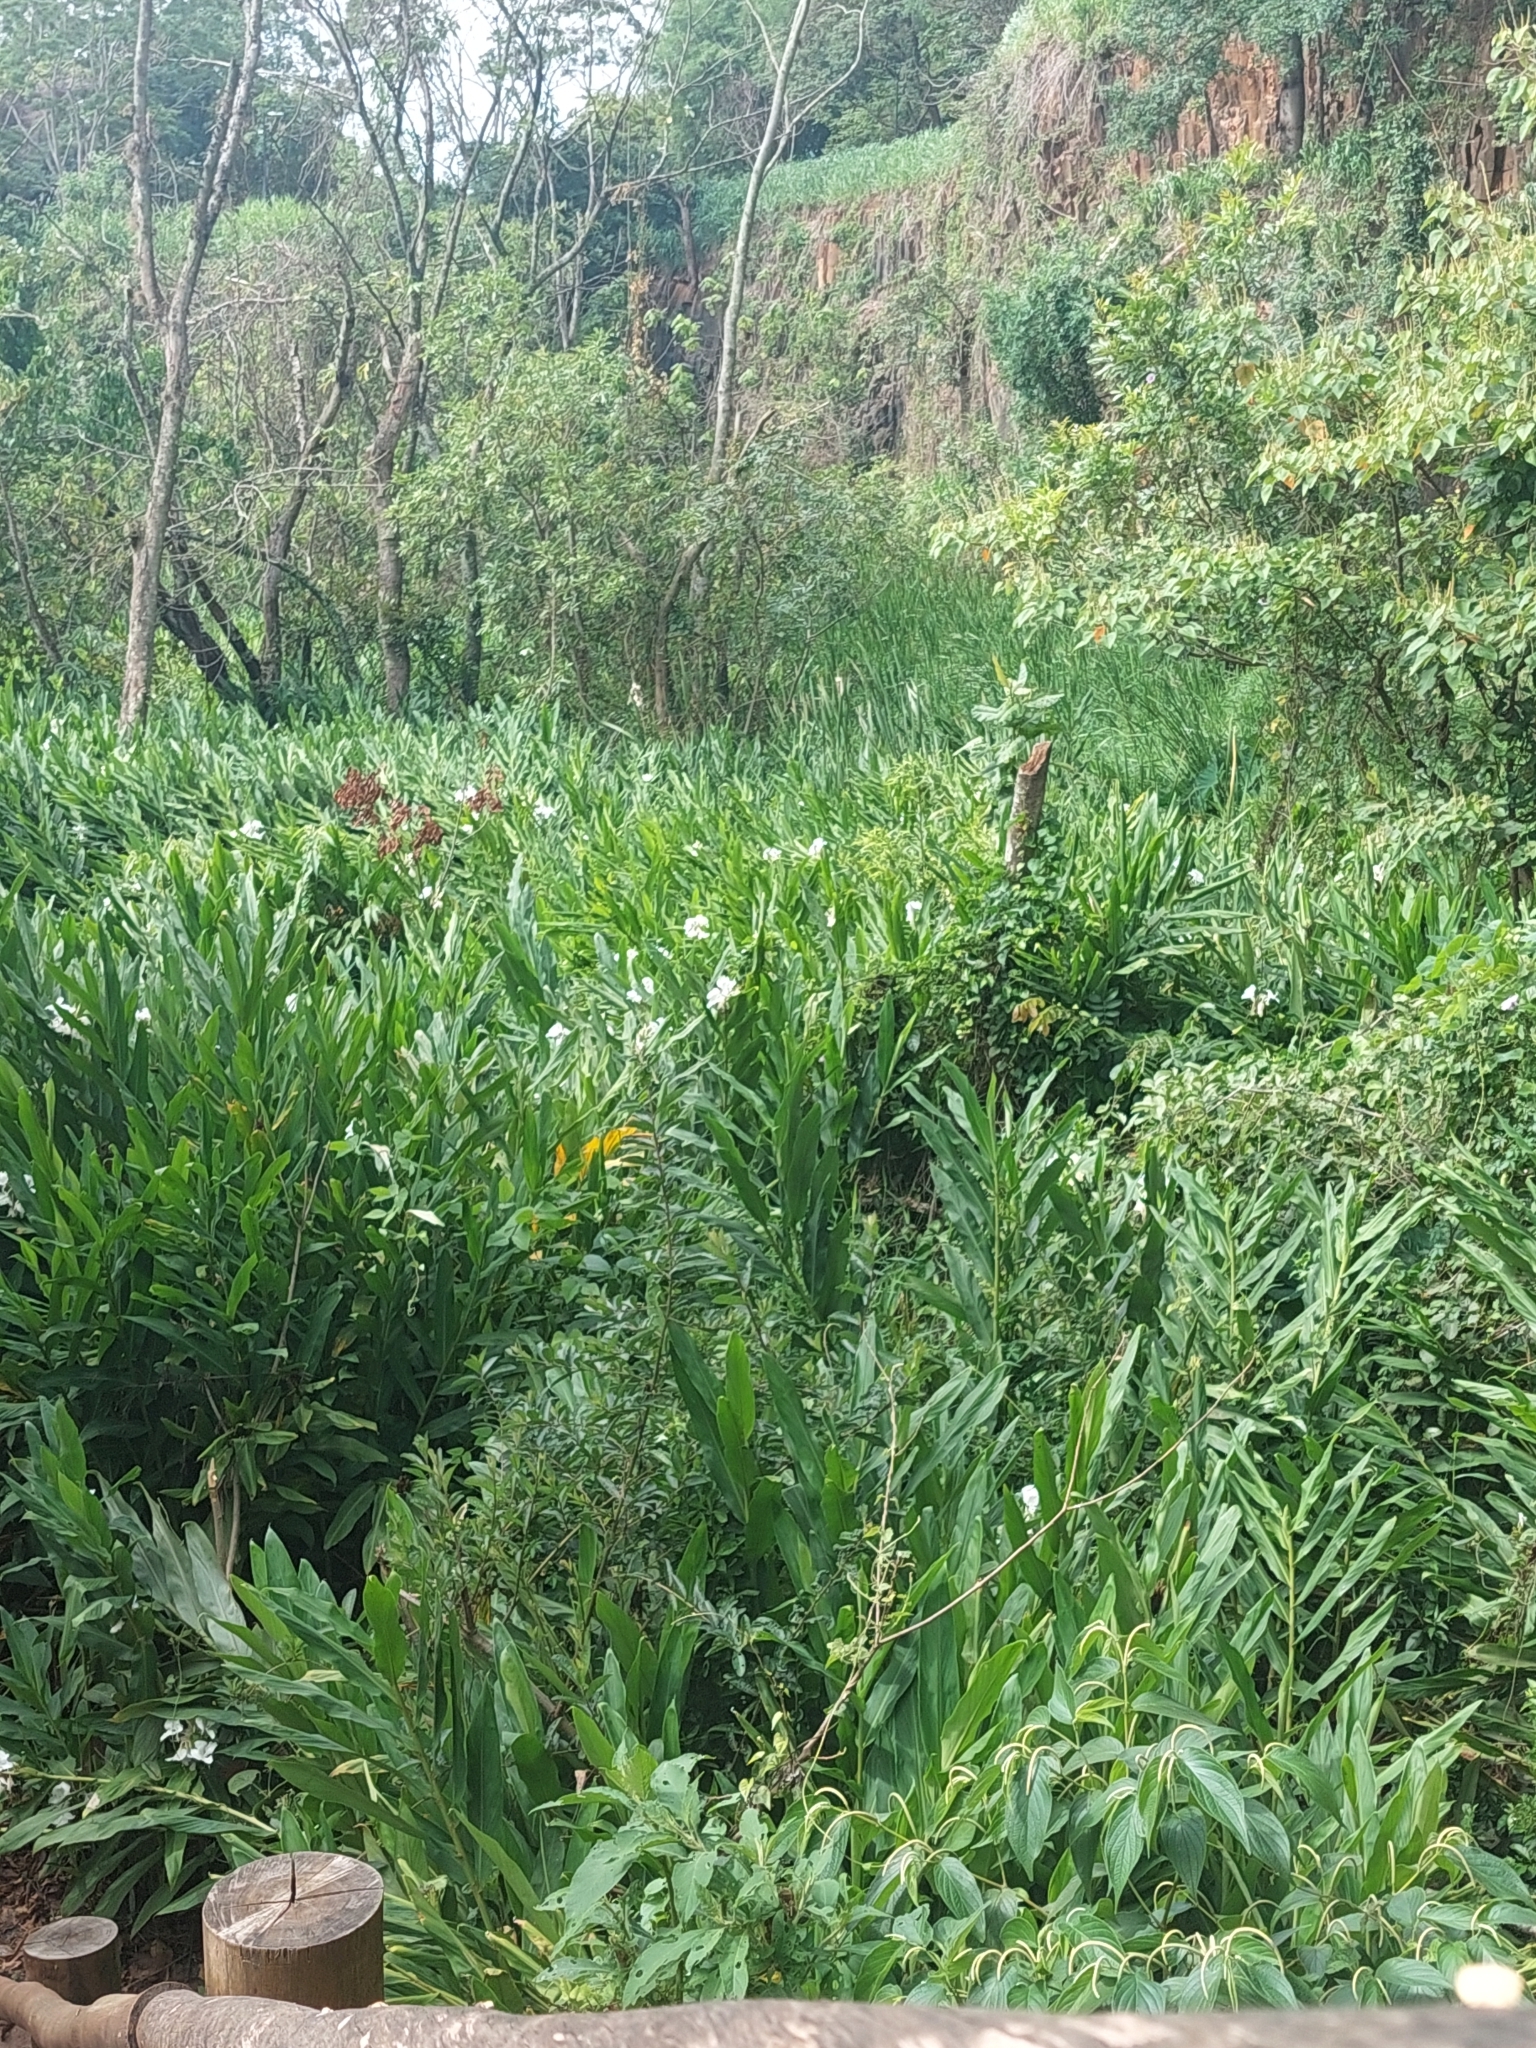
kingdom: Plantae
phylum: Tracheophyta
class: Liliopsida
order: Zingiberales
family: Zingiberaceae
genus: Hedychium
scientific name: Hedychium coronarium
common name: White garland-lily
